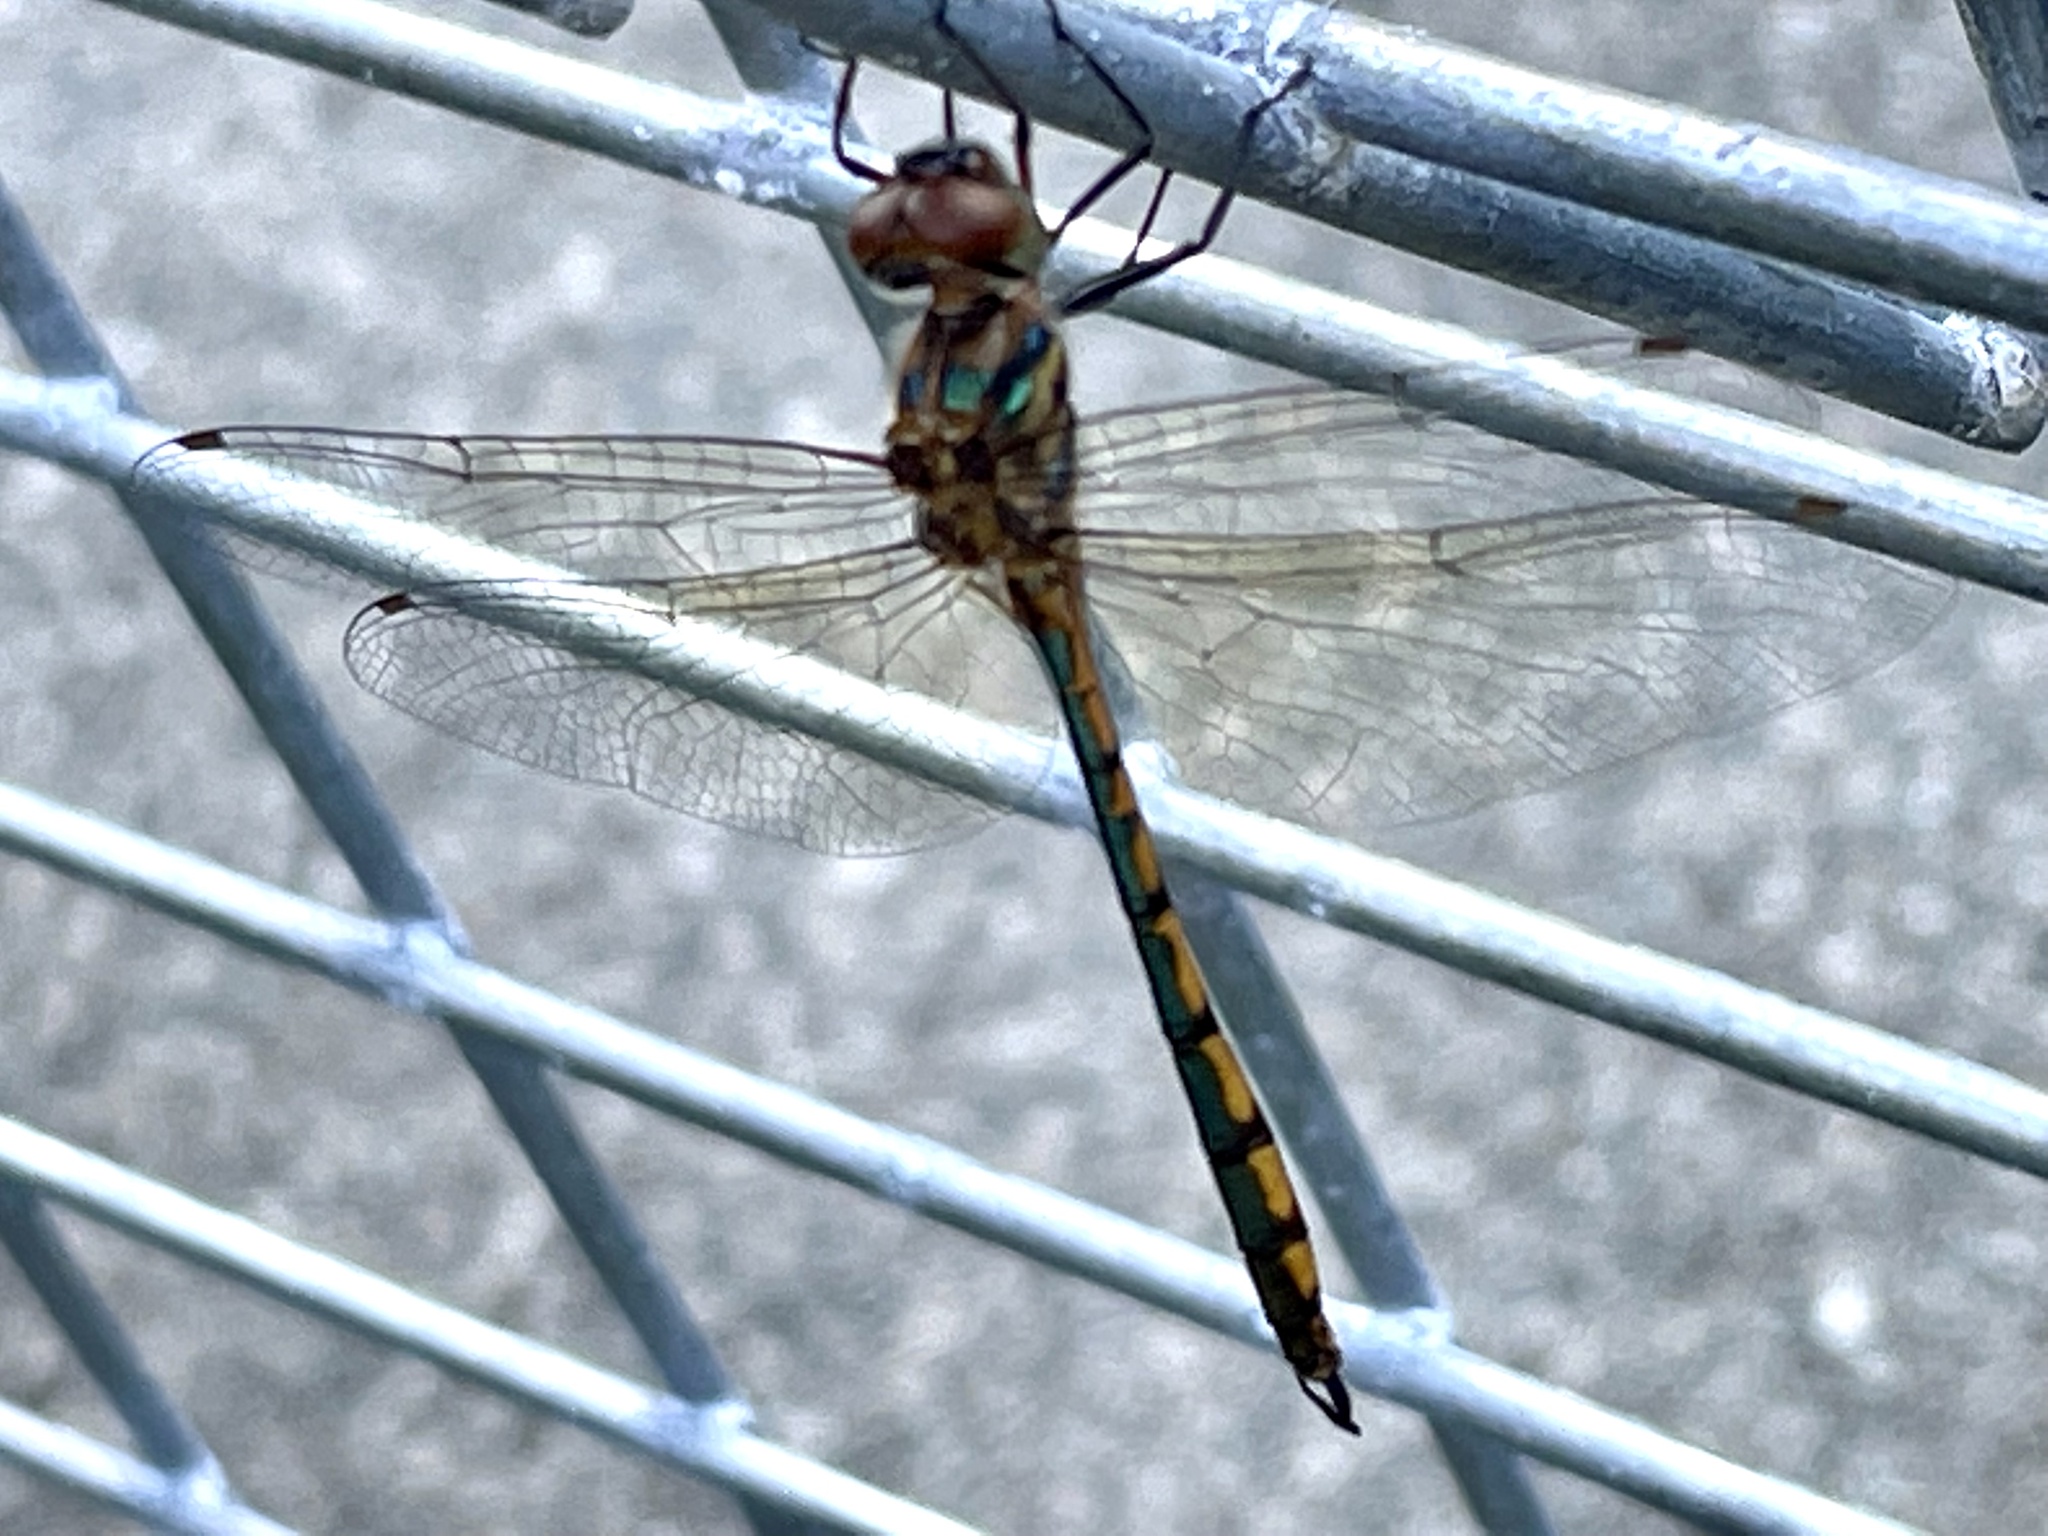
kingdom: Animalia
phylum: Arthropoda
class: Insecta
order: Odonata
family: Corduliidae
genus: Hemicordulia
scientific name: Hemicordulia continentalis
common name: Fat-bellied emerald
